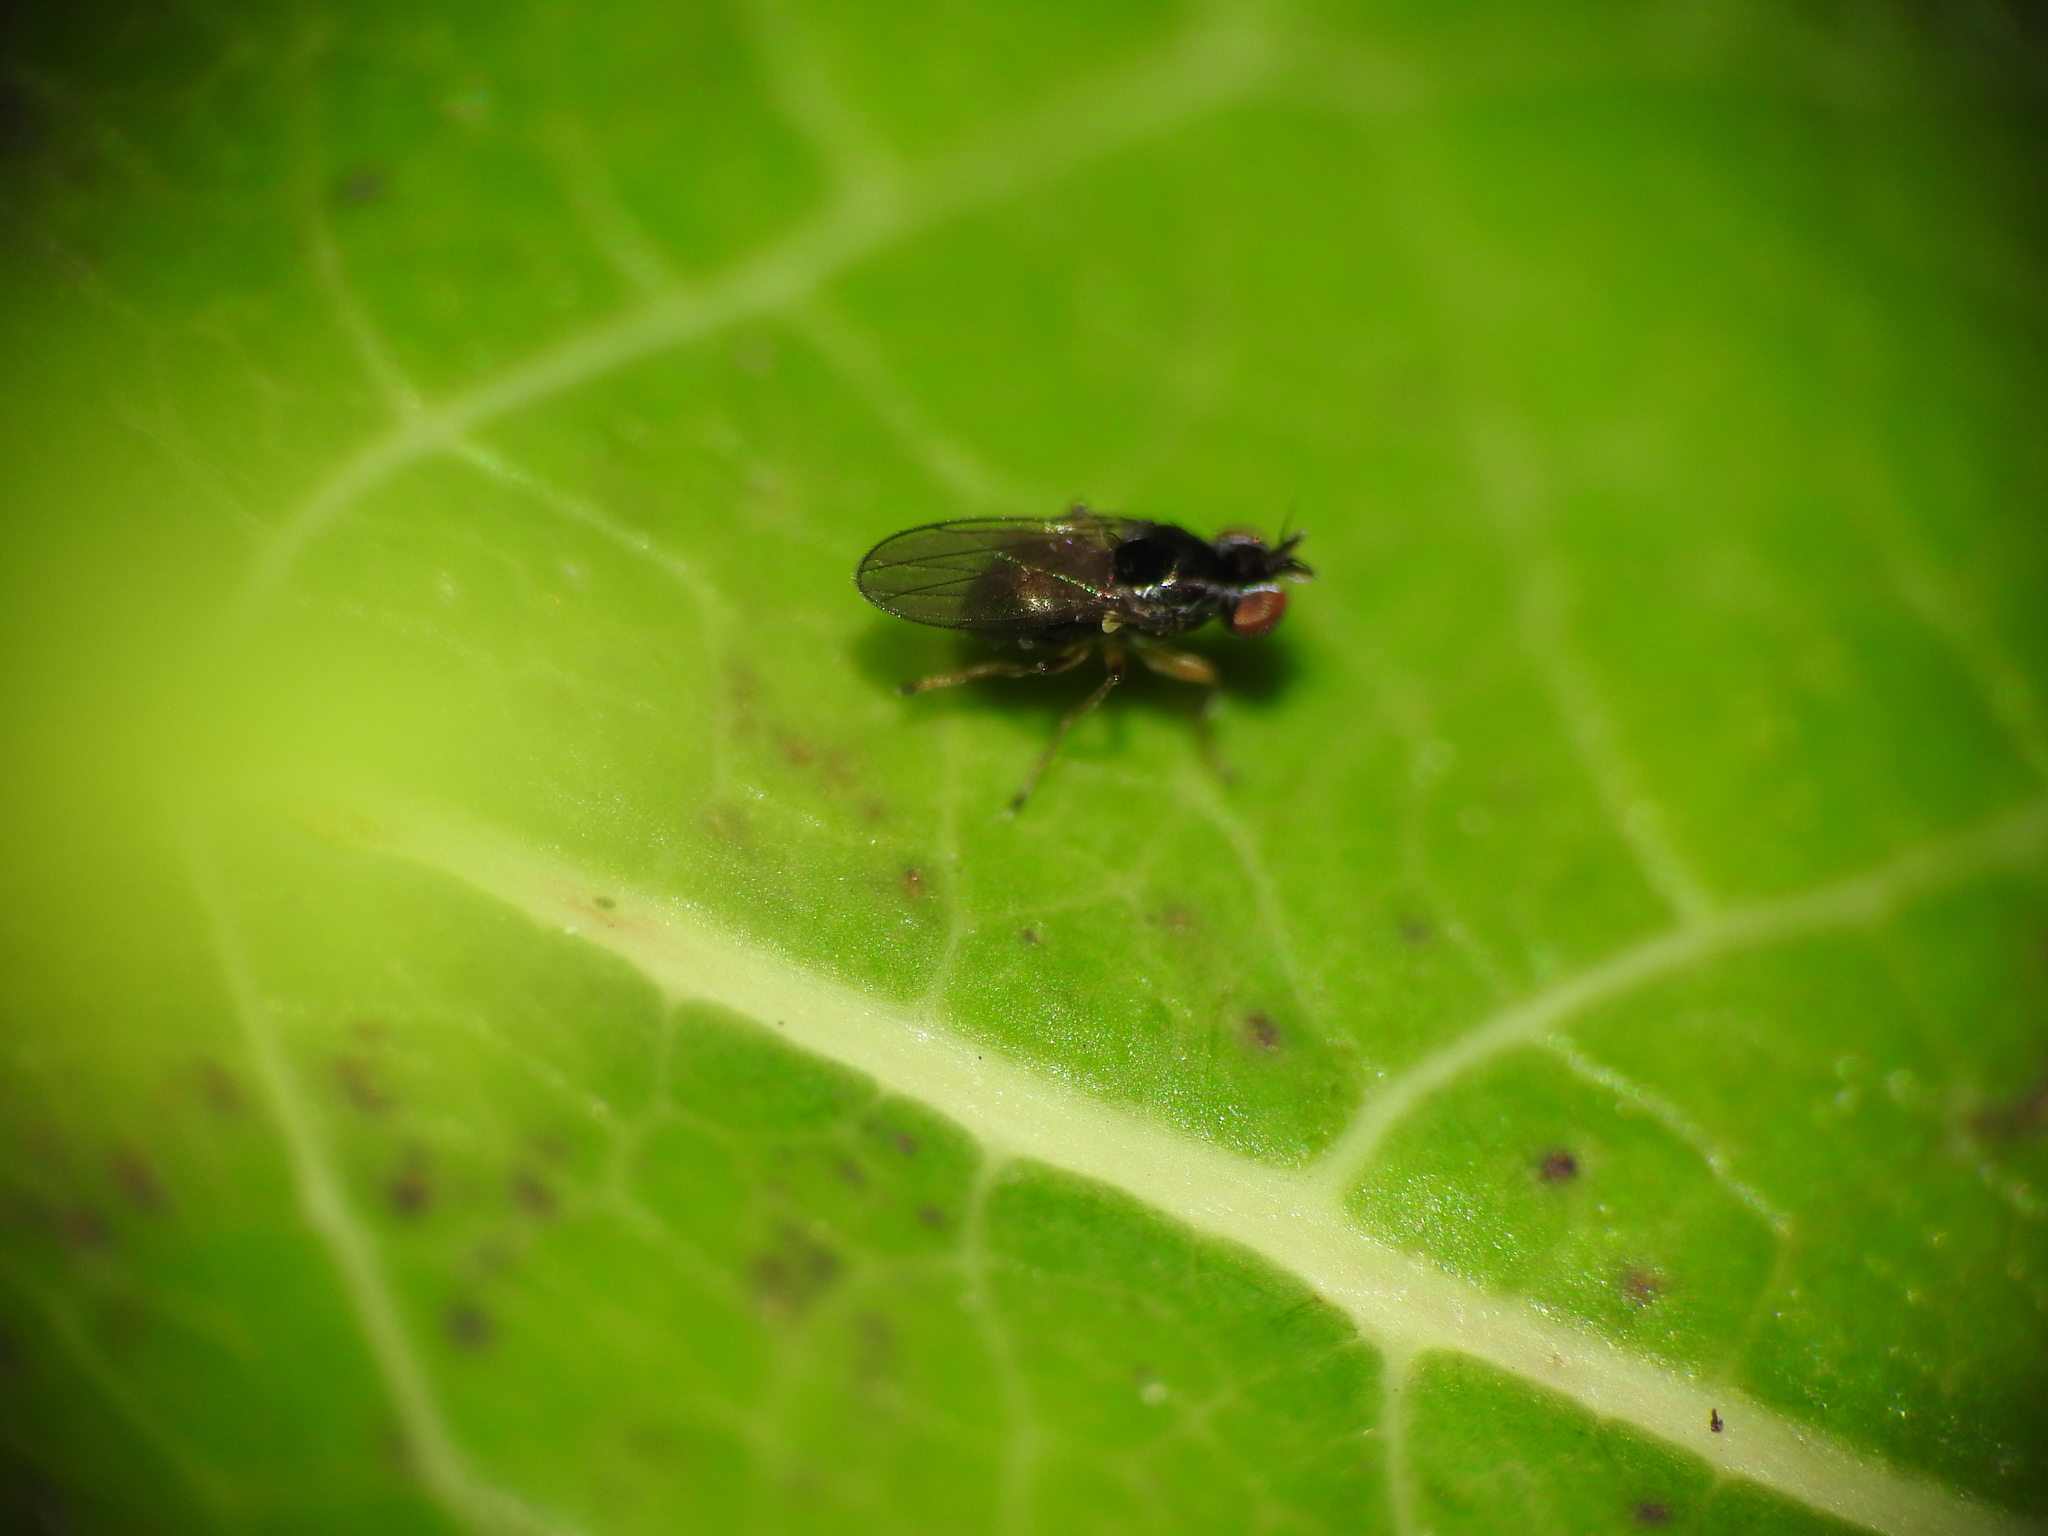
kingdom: Animalia
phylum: Arthropoda
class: Insecta
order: Diptera
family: Ephydridae
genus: Nostima
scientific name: Nostima picta
